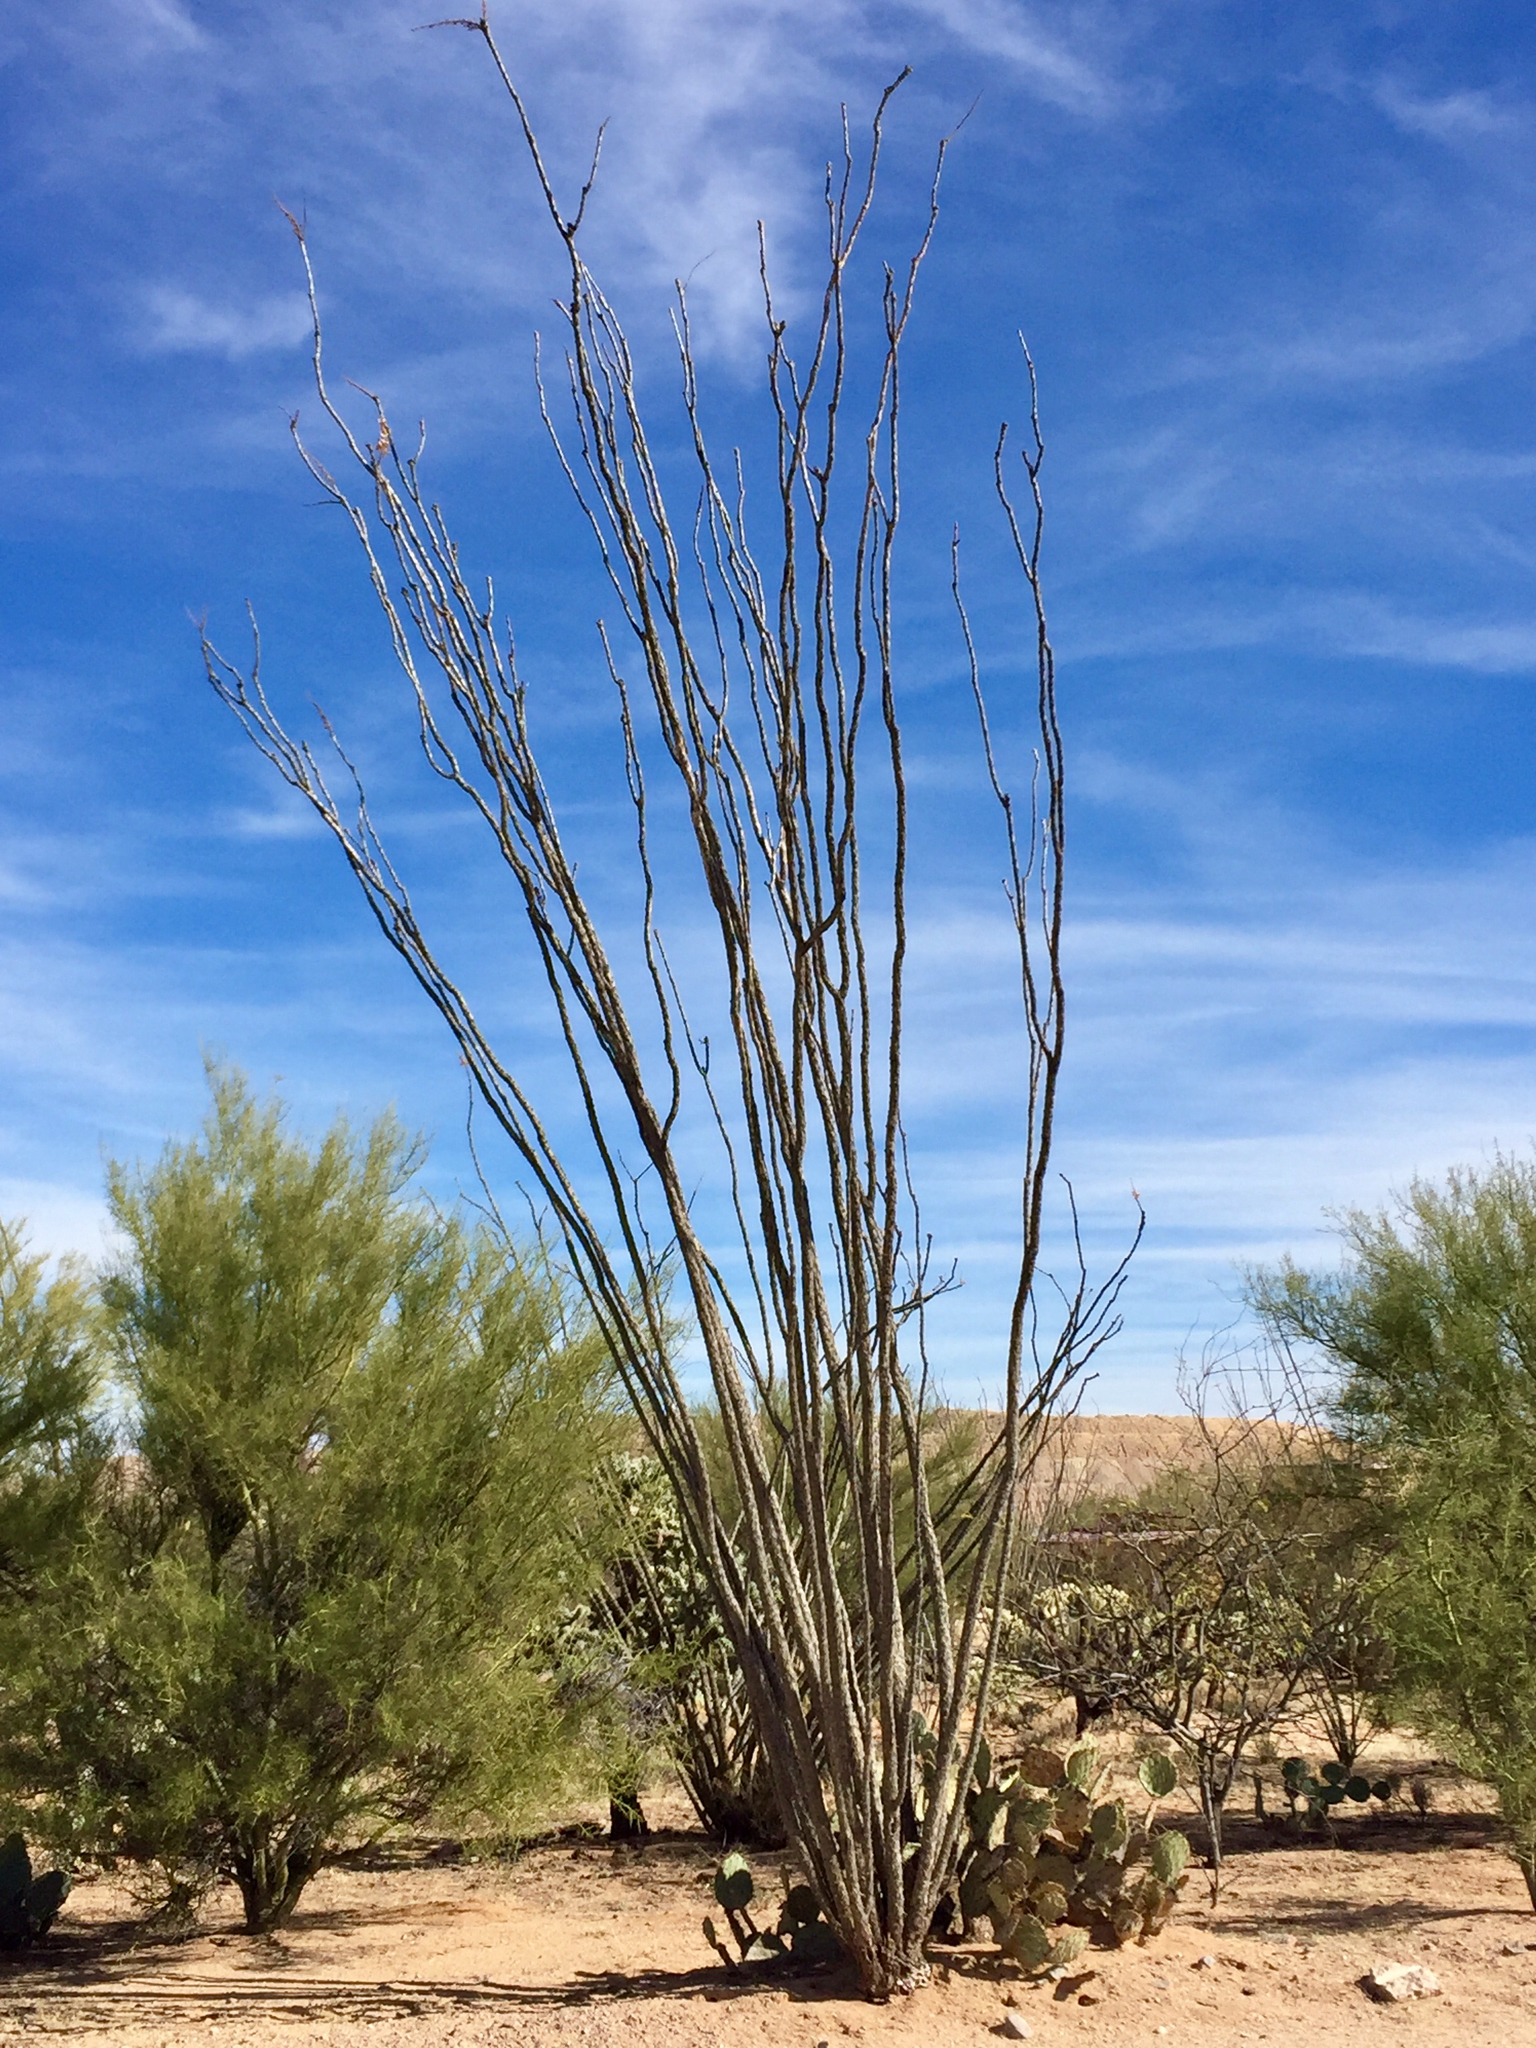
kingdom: Plantae
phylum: Tracheophyta
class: Magnoliopsida
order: Ericales
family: Fouquieriaceae
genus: Fouquieria
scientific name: Fouquieria splendens
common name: Vine-cactus
